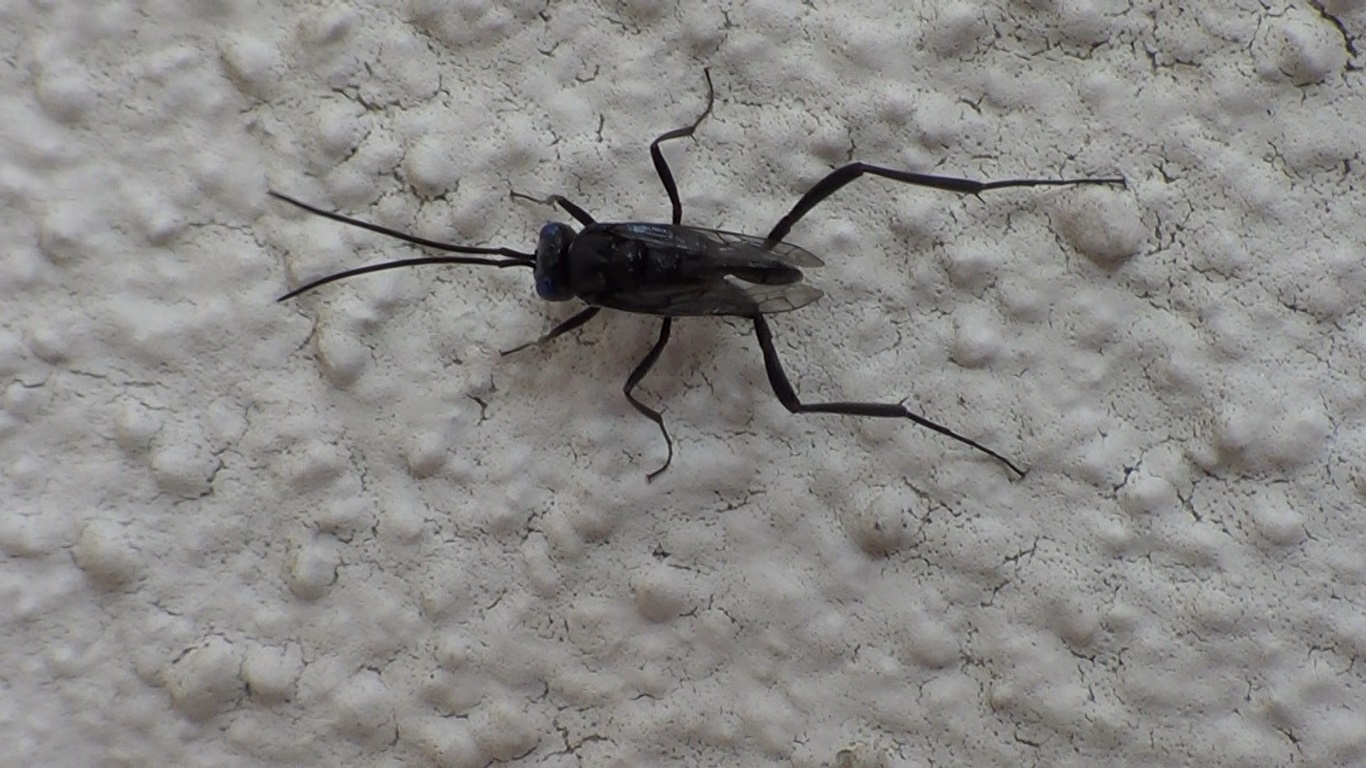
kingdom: Animalia
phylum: Arthropoda
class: Insecta
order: Hymenoptera
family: Evaniidae
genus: Evania
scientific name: Evania appendigaster
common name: Ensign wasp
